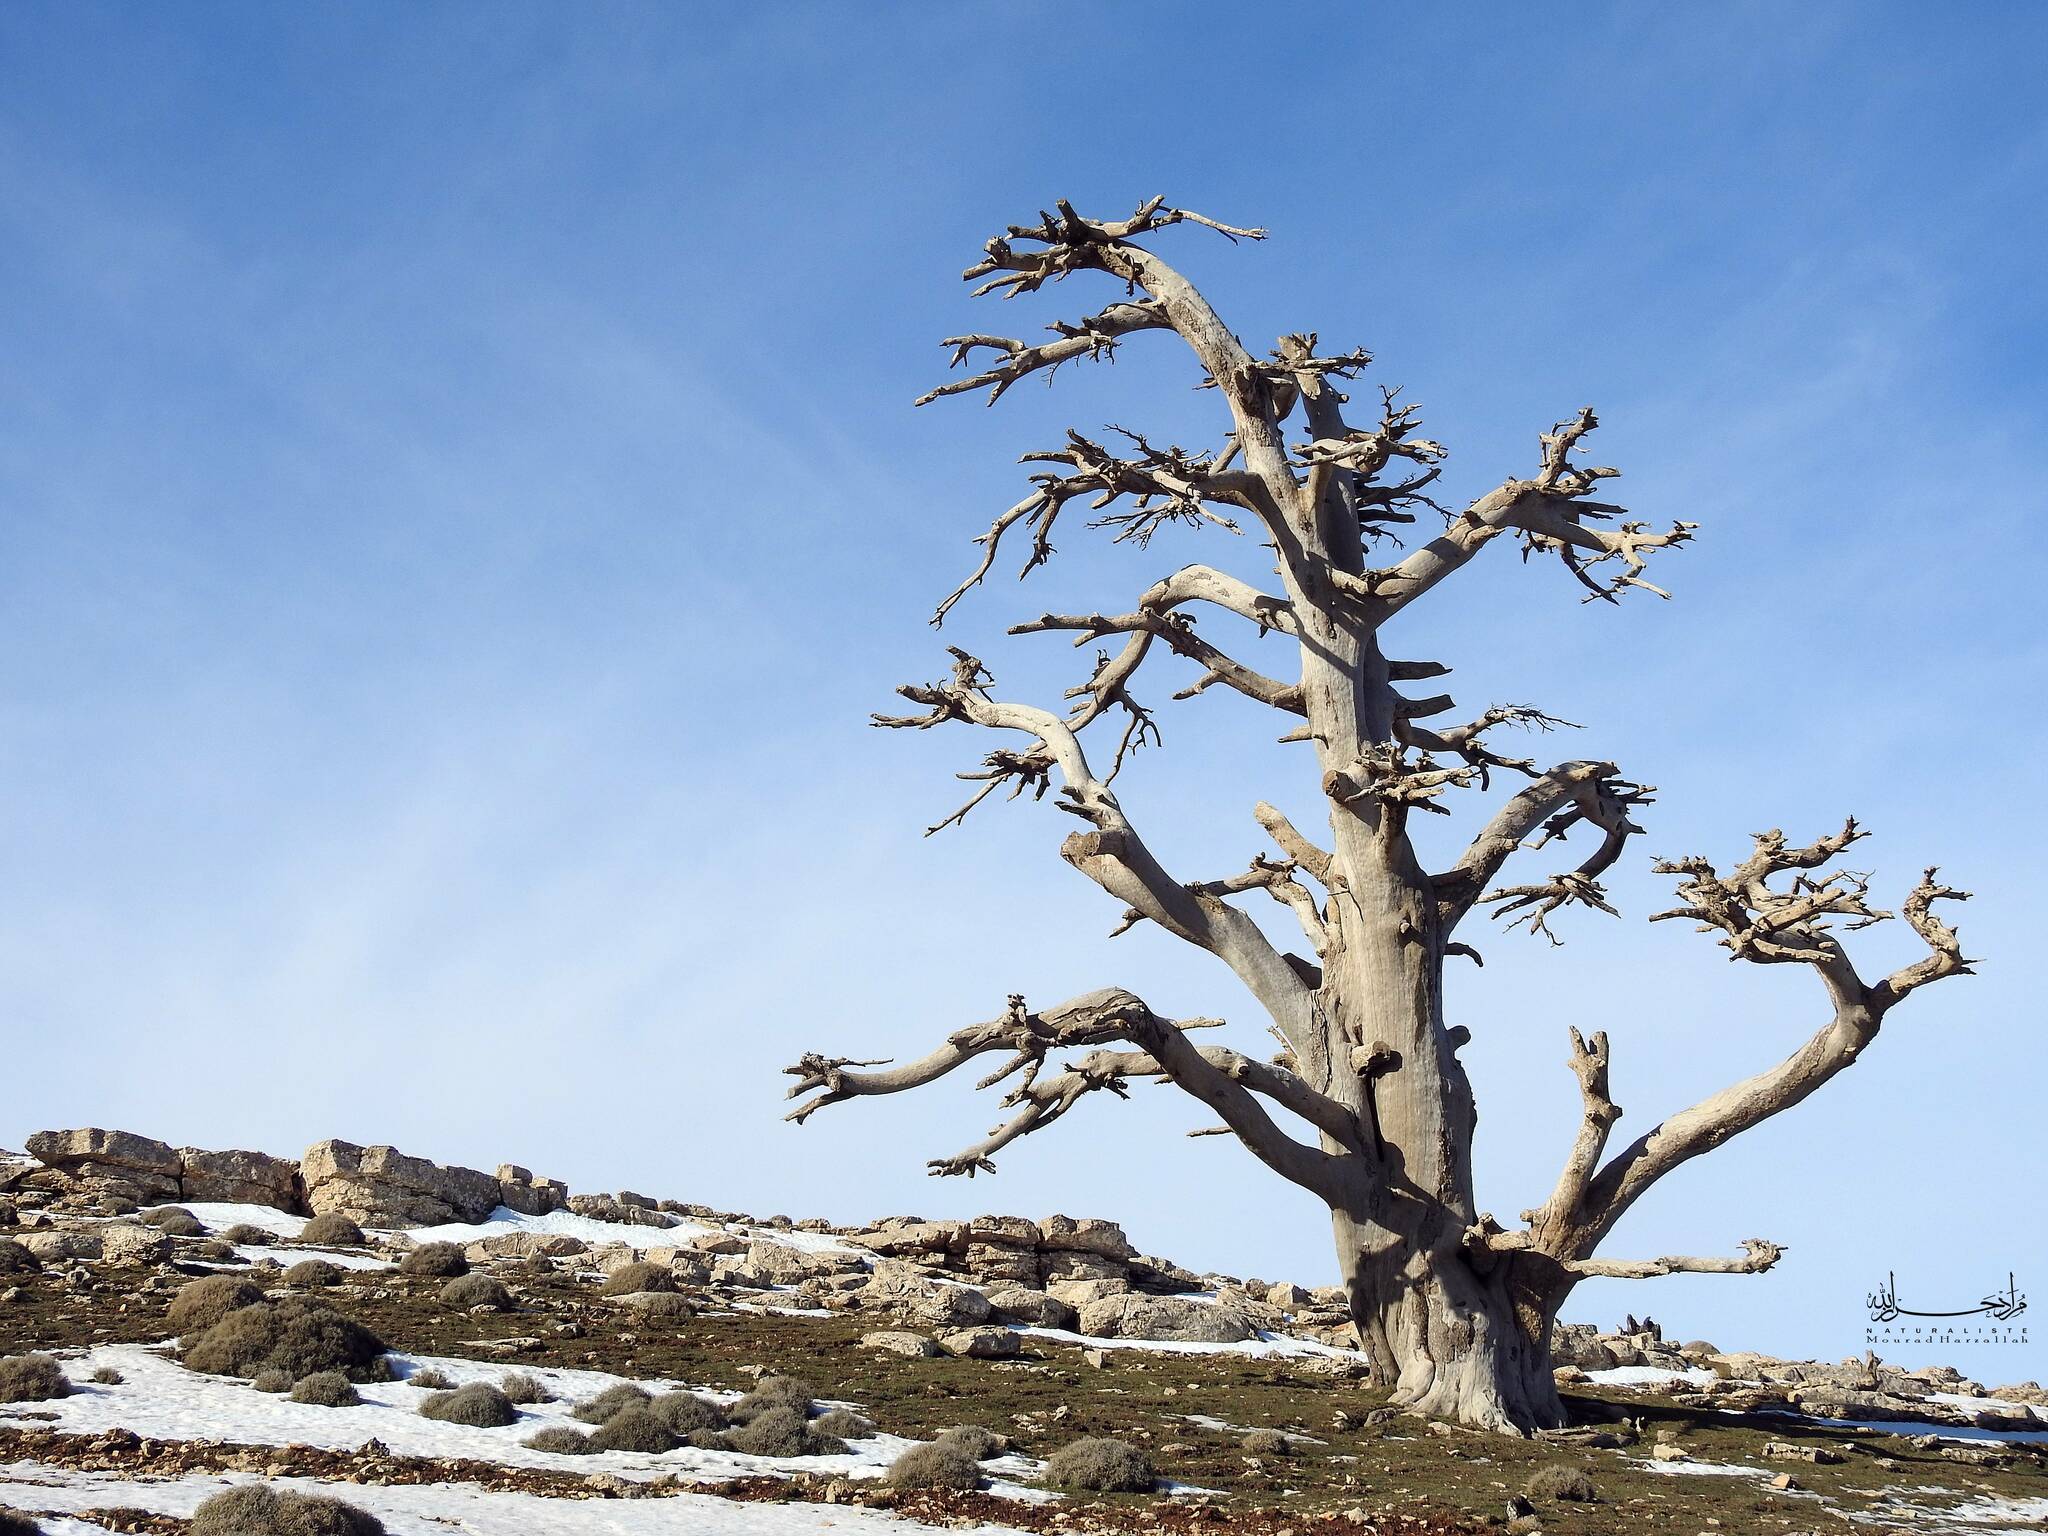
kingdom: Plantae
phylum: Tracheophyta
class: Pinopsida
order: Pinales
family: Pinaceae
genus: Cedrus
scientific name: Cedrus atlantica
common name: Atlas cedar
